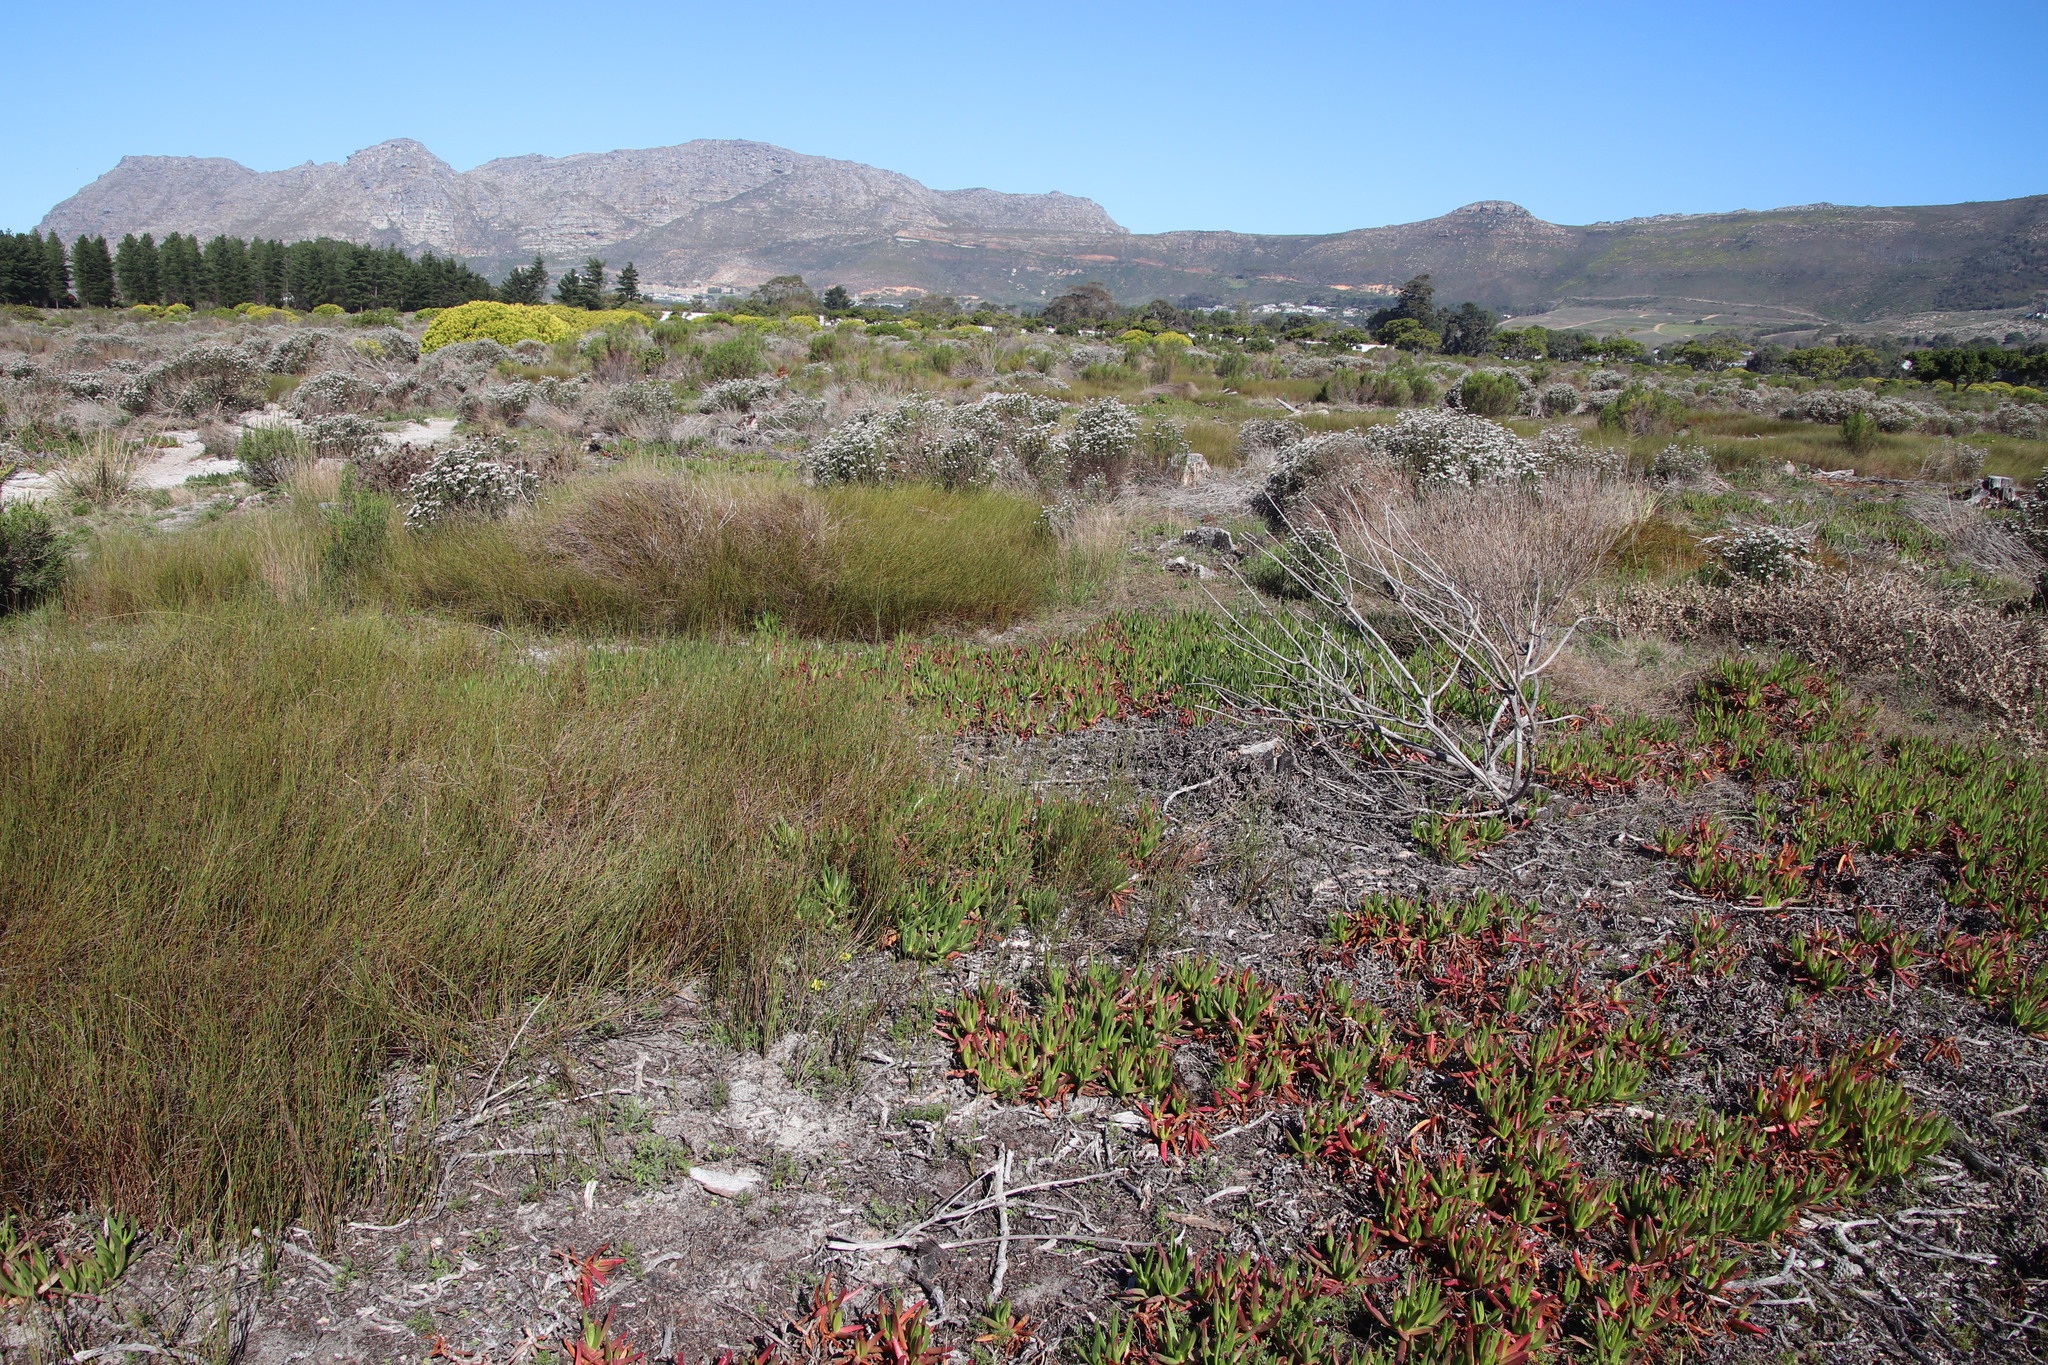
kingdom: Plantae
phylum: Tracheophyta
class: Liliopsida
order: Poales
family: Restionaceae
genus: Willdenowia
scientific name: Willdenowia sulcata
